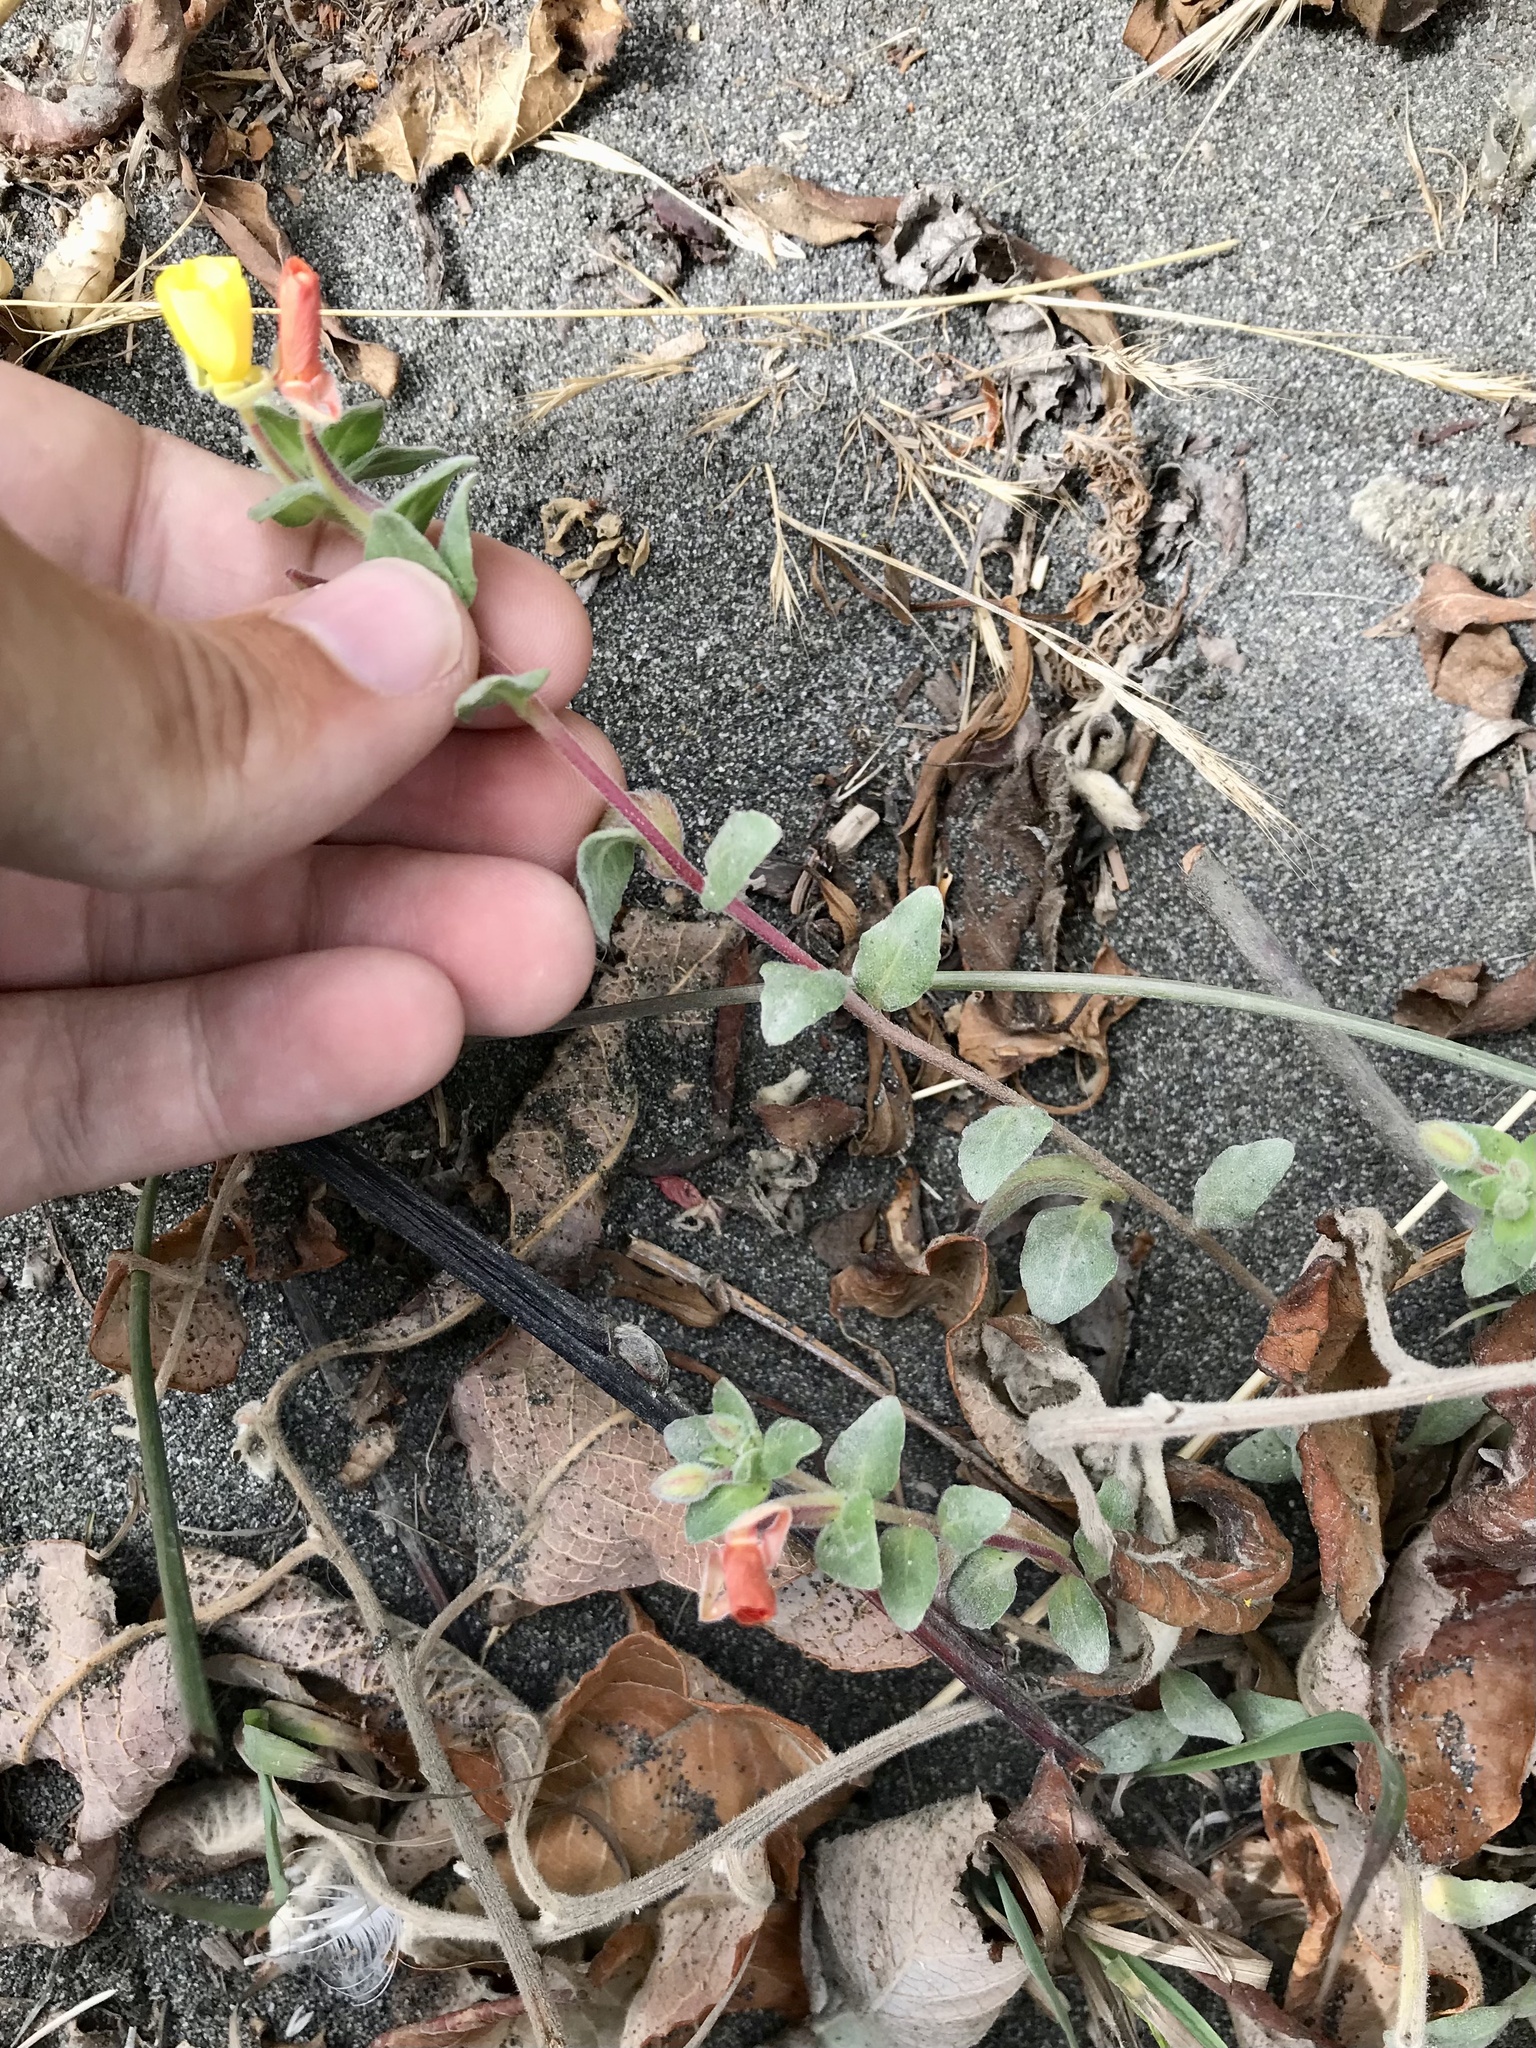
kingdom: Plantae
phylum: Tracheophyta
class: Magnoliopsida
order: Myrtales
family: Onagraceae
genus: Camissoniopsis
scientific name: Camissoniopsis cheiranthifolia
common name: Beach suncup
